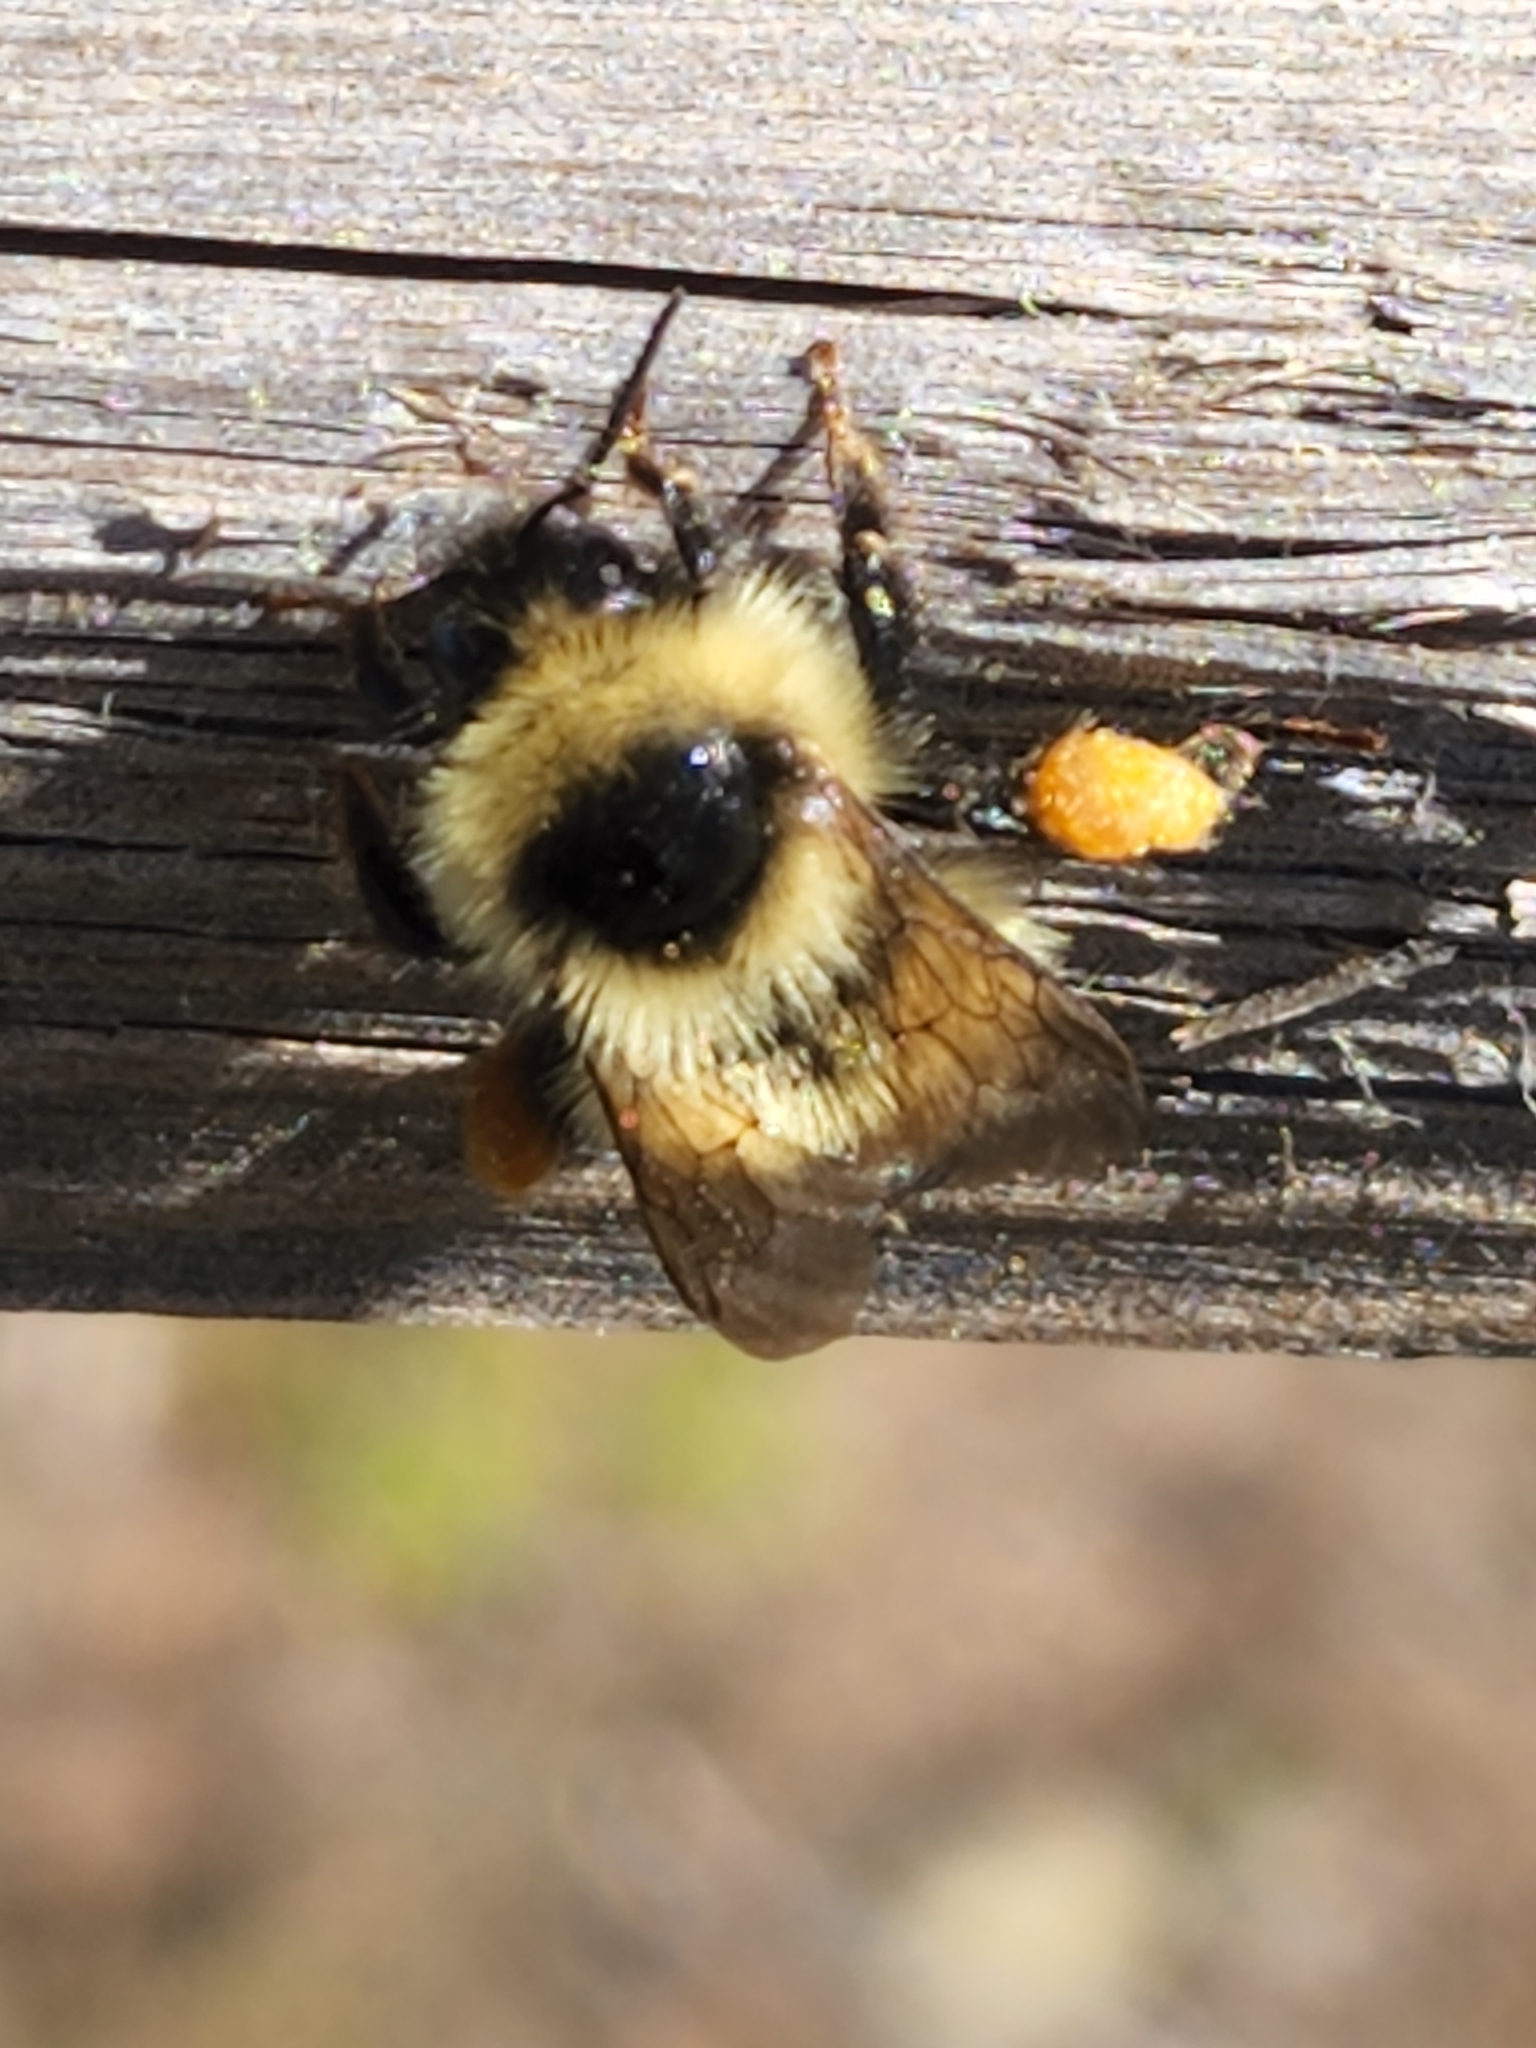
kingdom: Animalia
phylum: Arthropoda
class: Insecta
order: Hymenoptera
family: Apidae
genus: Bombus
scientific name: Bombus frigidus
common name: Frigid bumble bee
